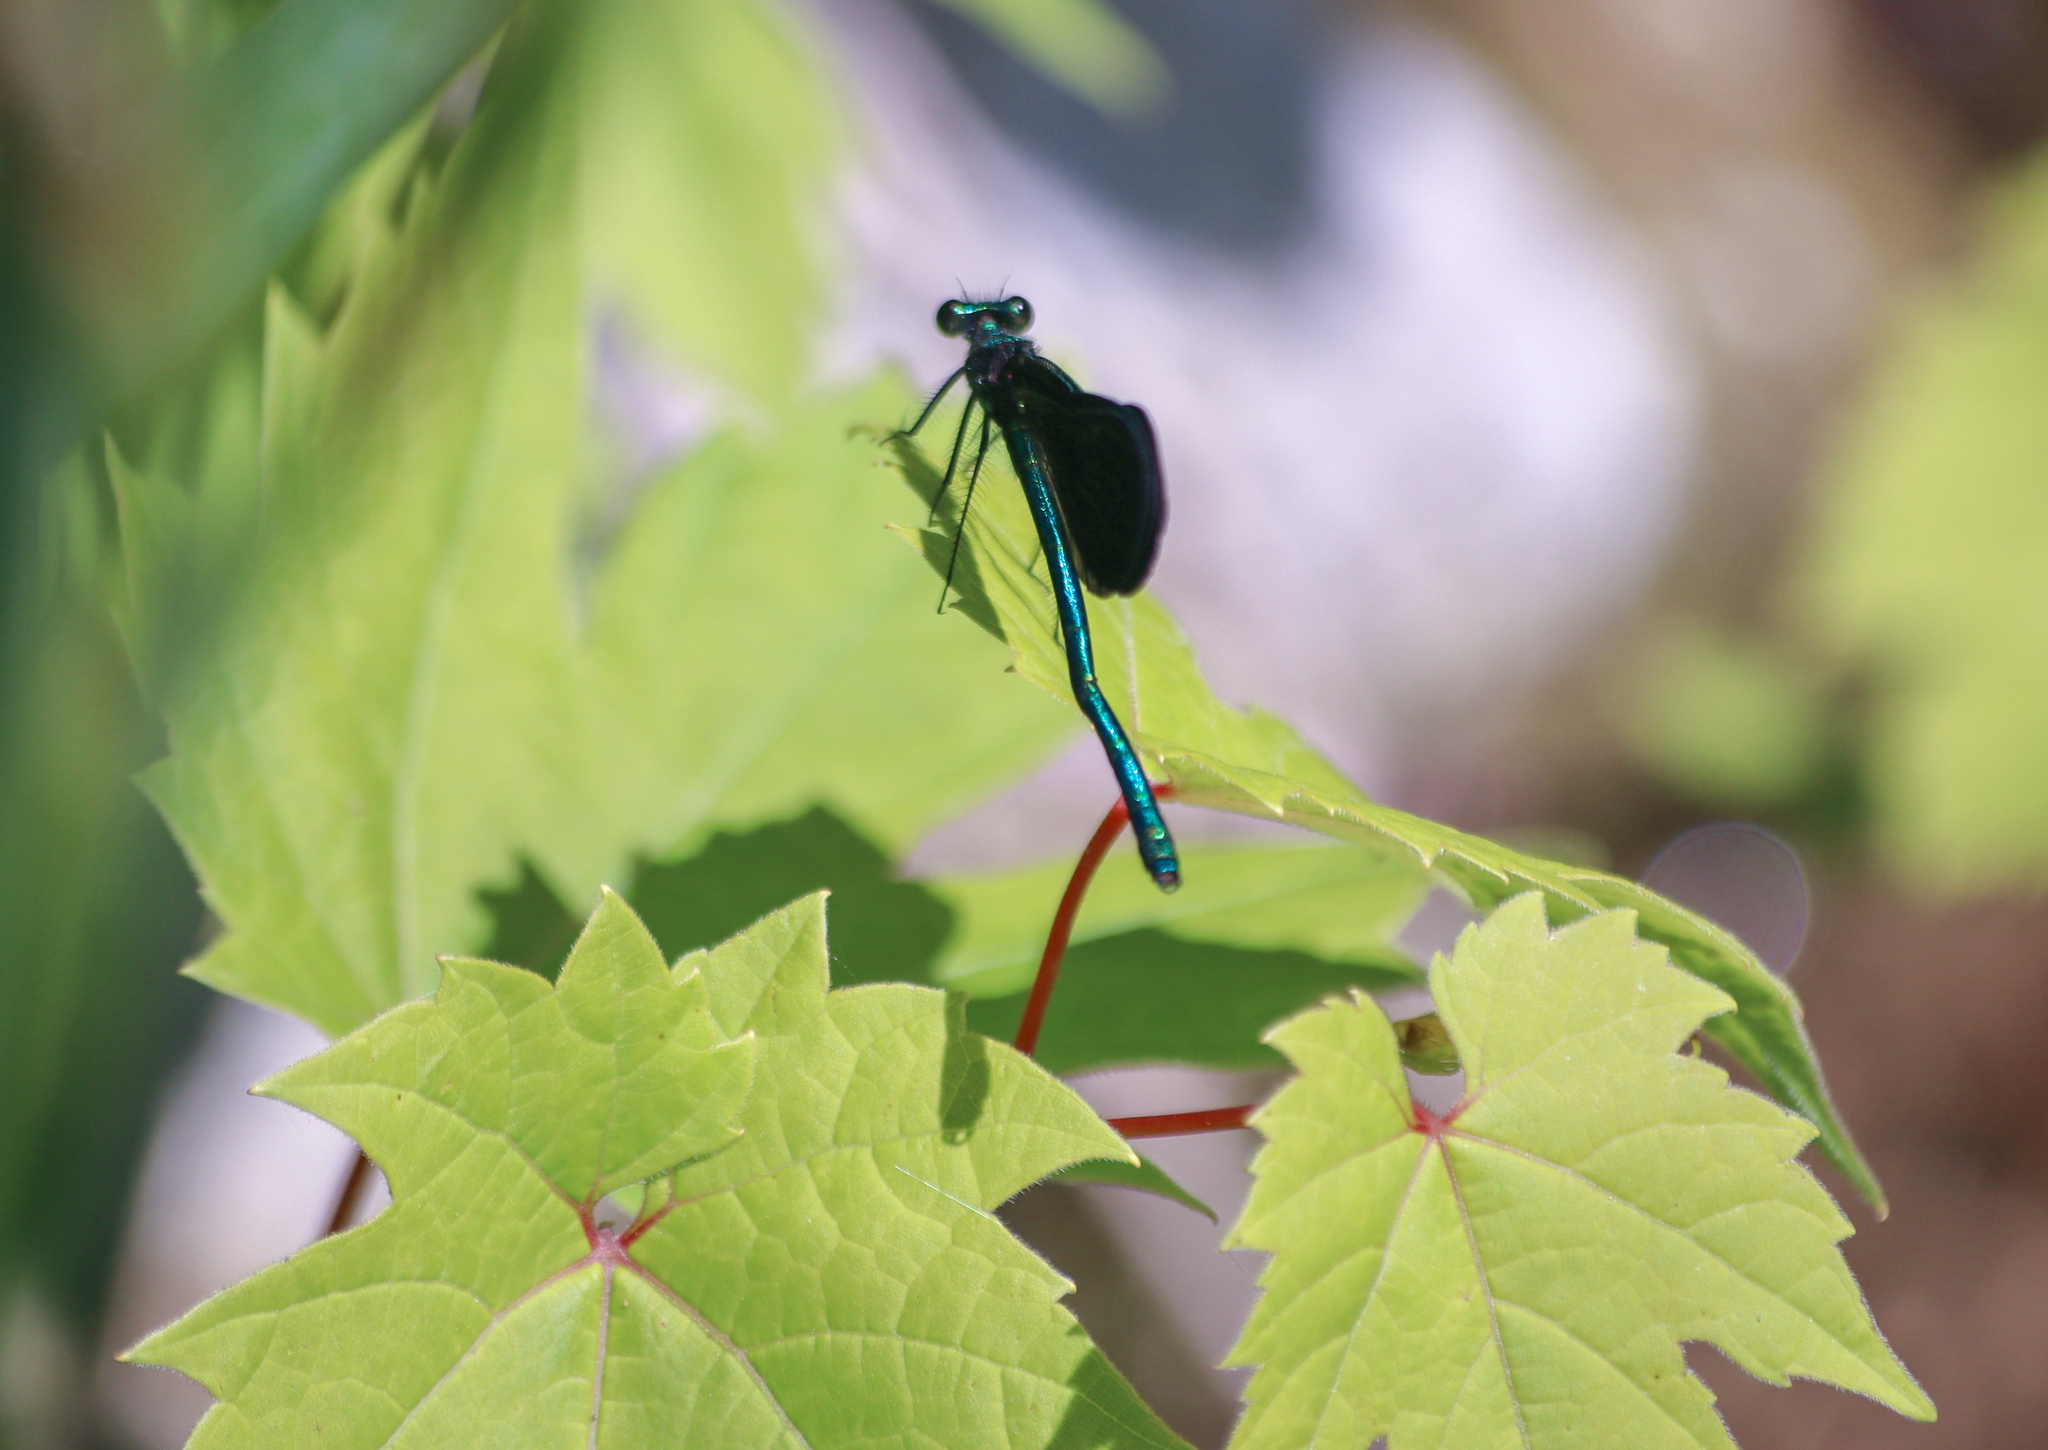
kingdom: Animalia
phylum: Arthropoda
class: Insecta
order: Odonata
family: Calopterygidae
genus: Calopteryx
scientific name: Calopteryx maculata
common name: Ebony jewelwing
